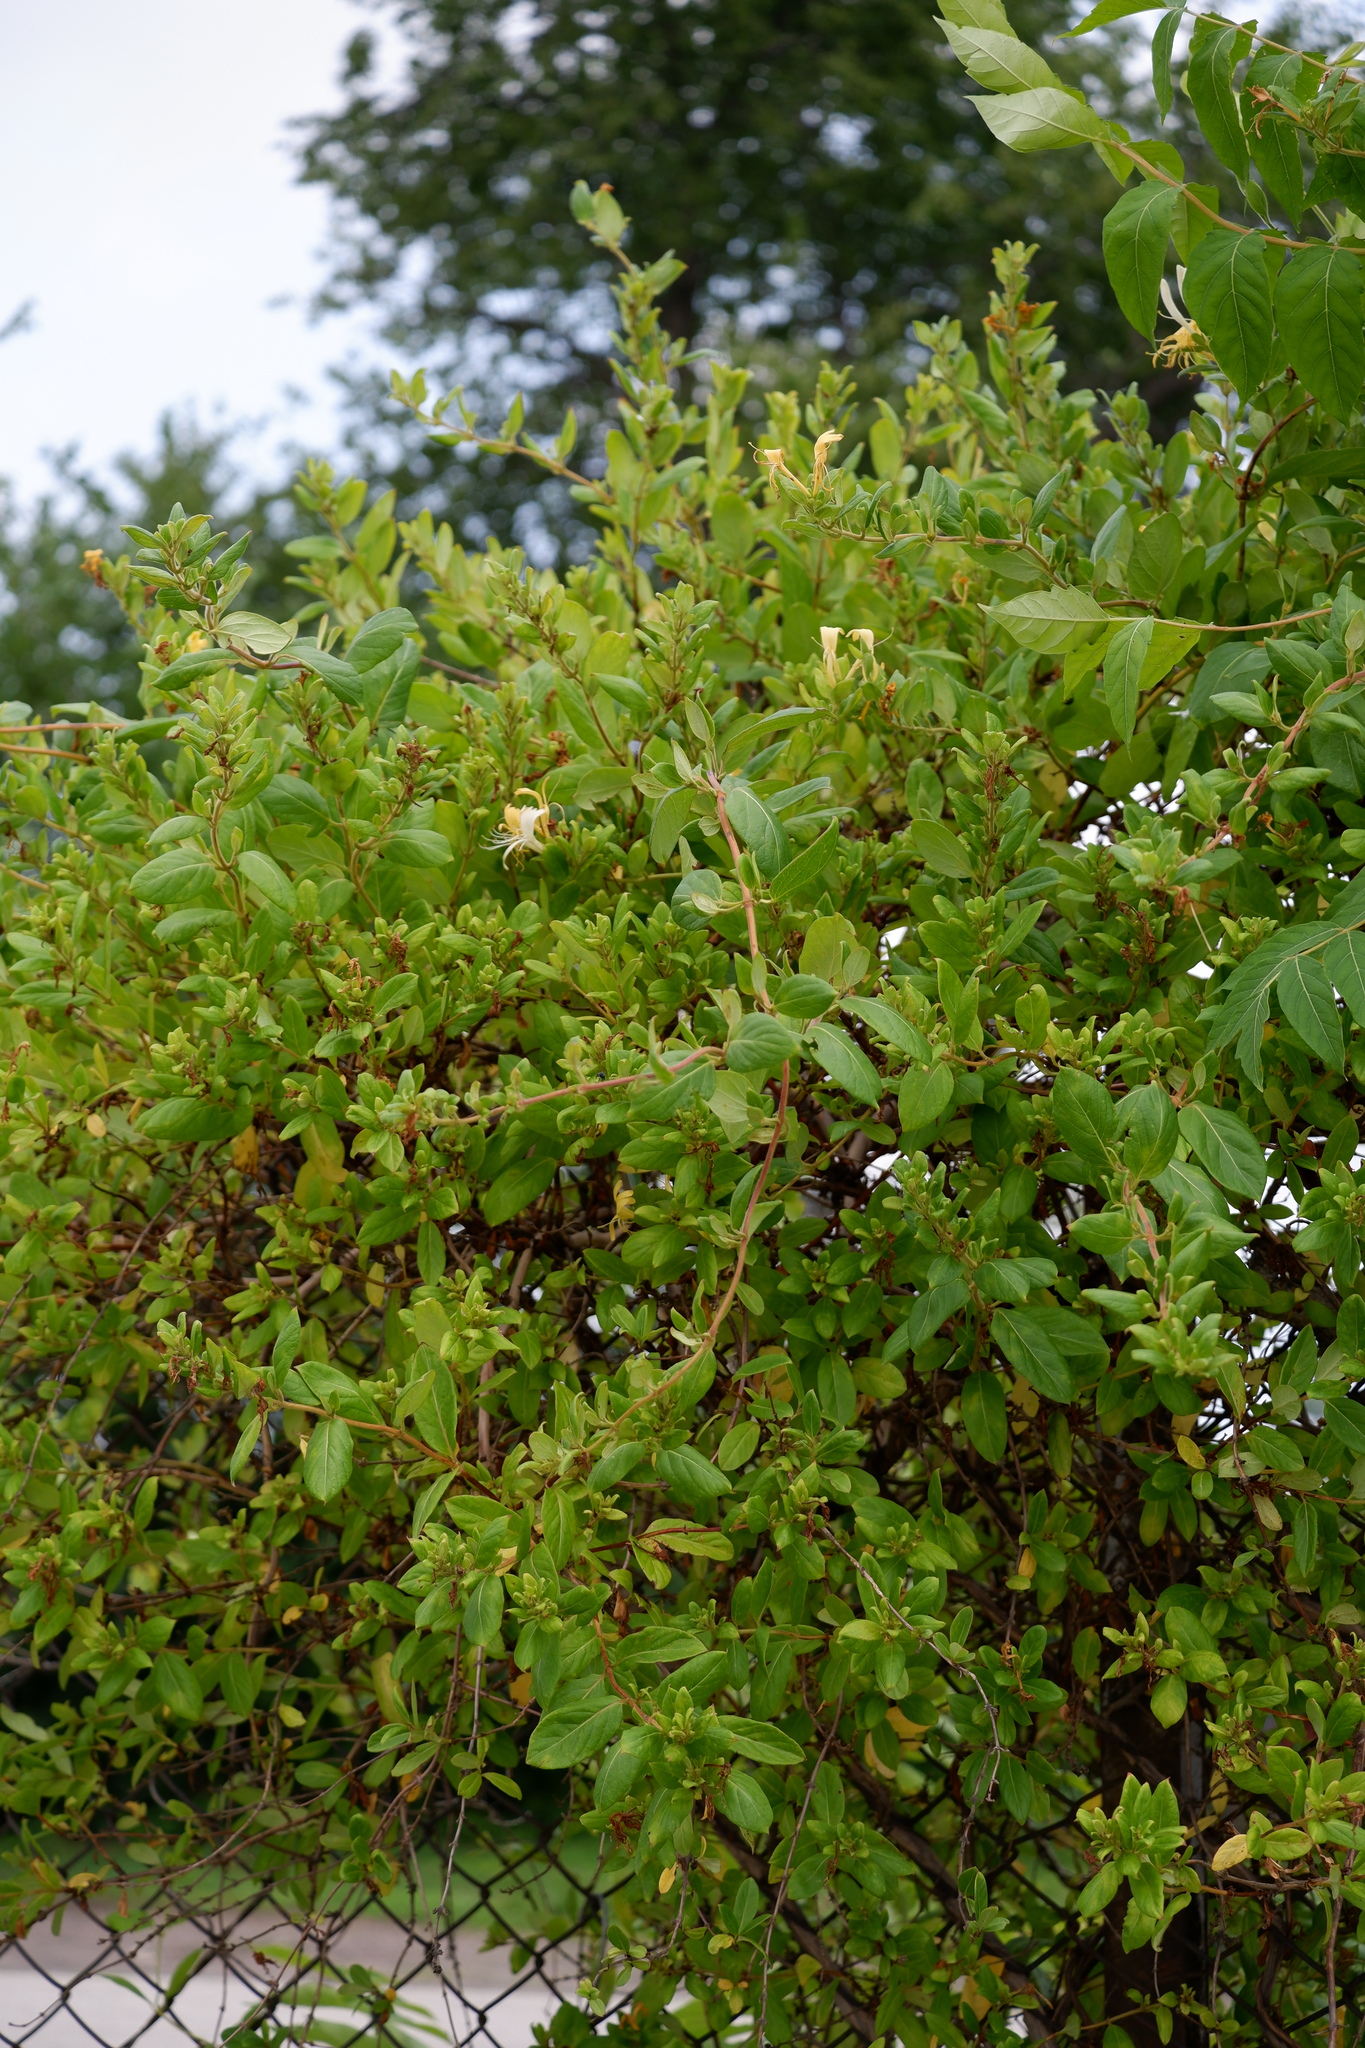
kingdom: Plantae
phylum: Tracheophyta
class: Magnoliopsida
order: Dipsacales
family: Caprifoliaceae
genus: Lonicera
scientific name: Lonicera japonica
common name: Japanese honeysuckle
